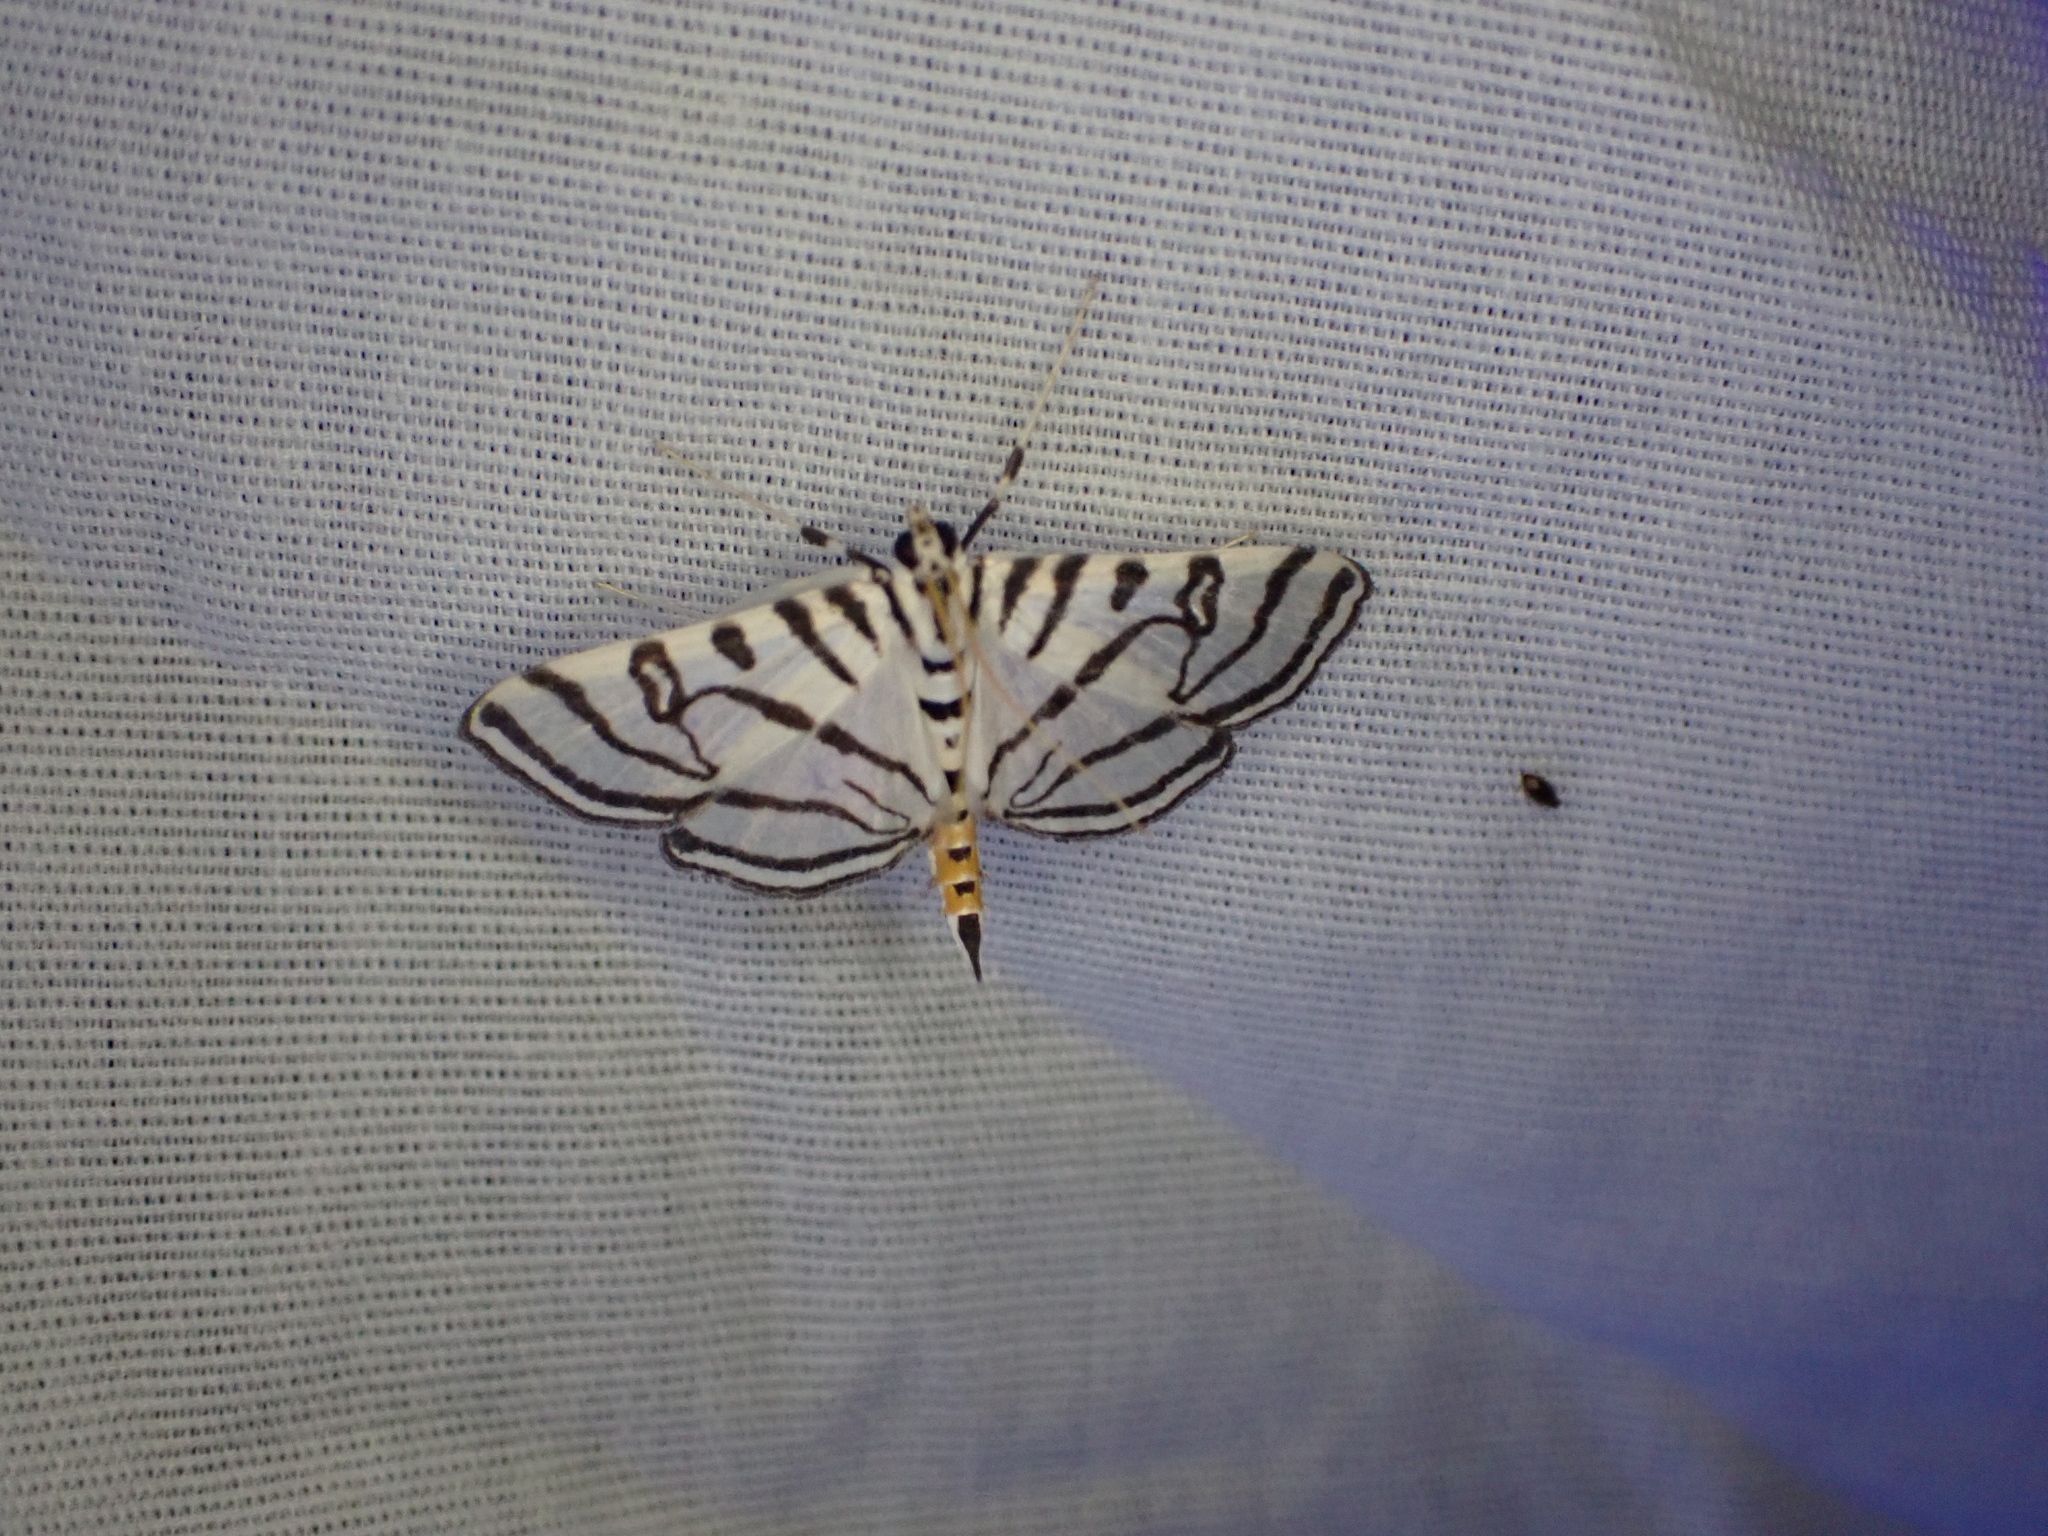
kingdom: Animalia
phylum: Arthropoda
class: Insecta
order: Lepidoptera
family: Crambidae
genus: Conchylodes
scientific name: Conchylodes ovulalis
